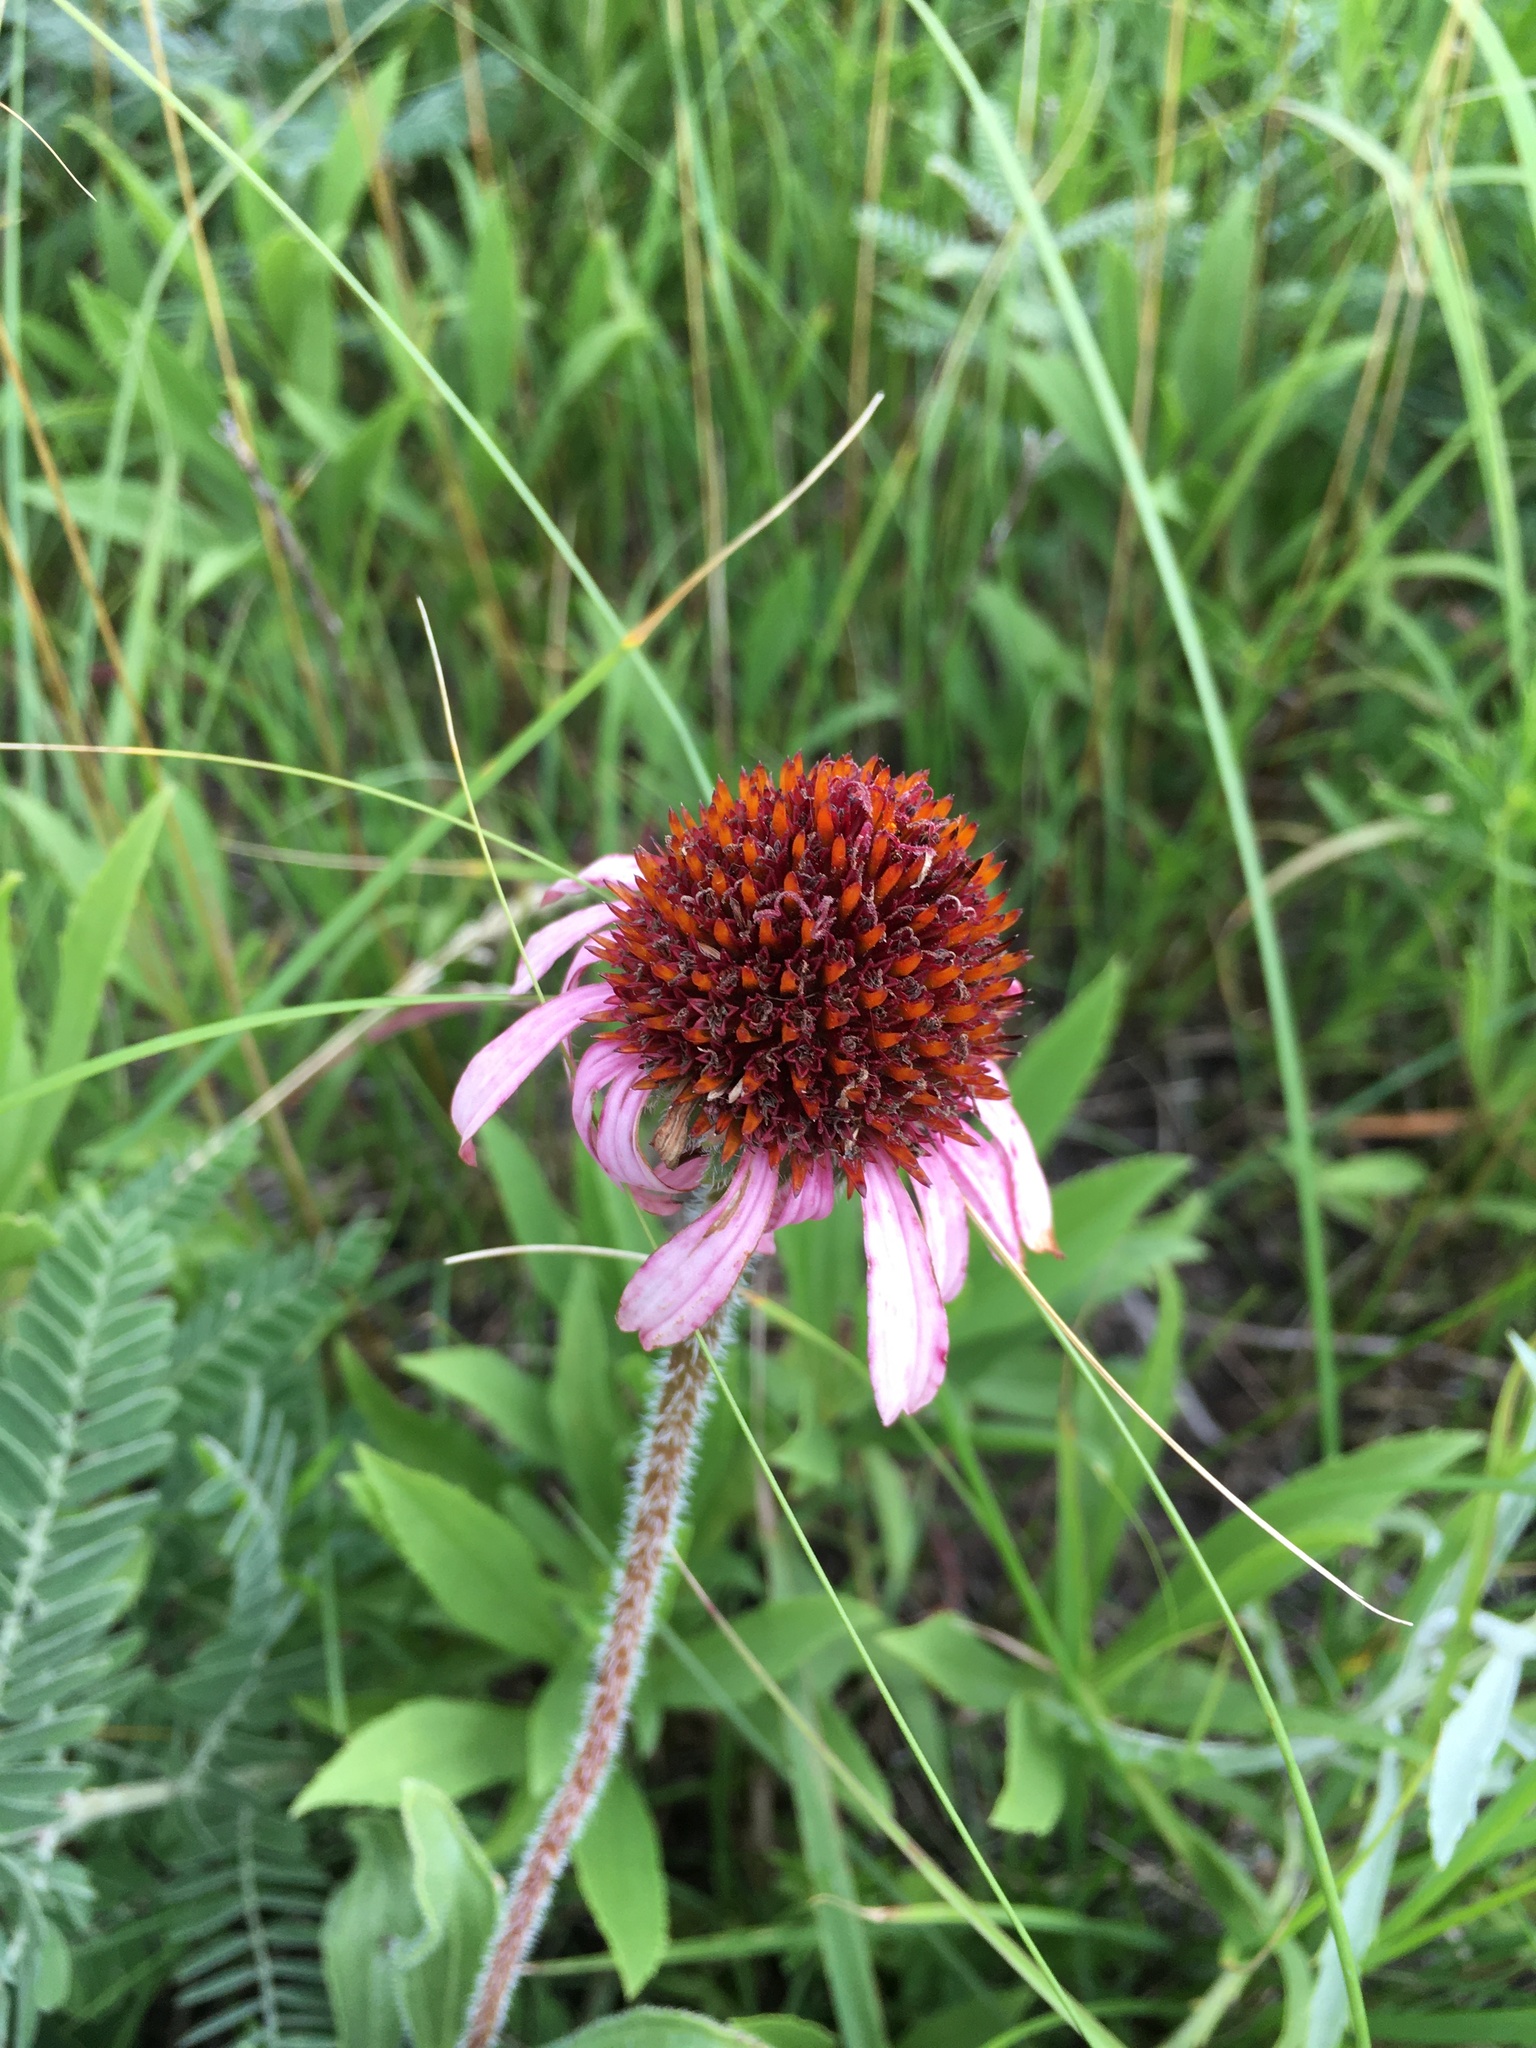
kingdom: Plantae
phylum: Tracheophyta
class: Magnoliopsida
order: Asterales
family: Asteraceae
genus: Echinacea
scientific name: Echinacea angustifolia
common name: Black-sampson echinacea
